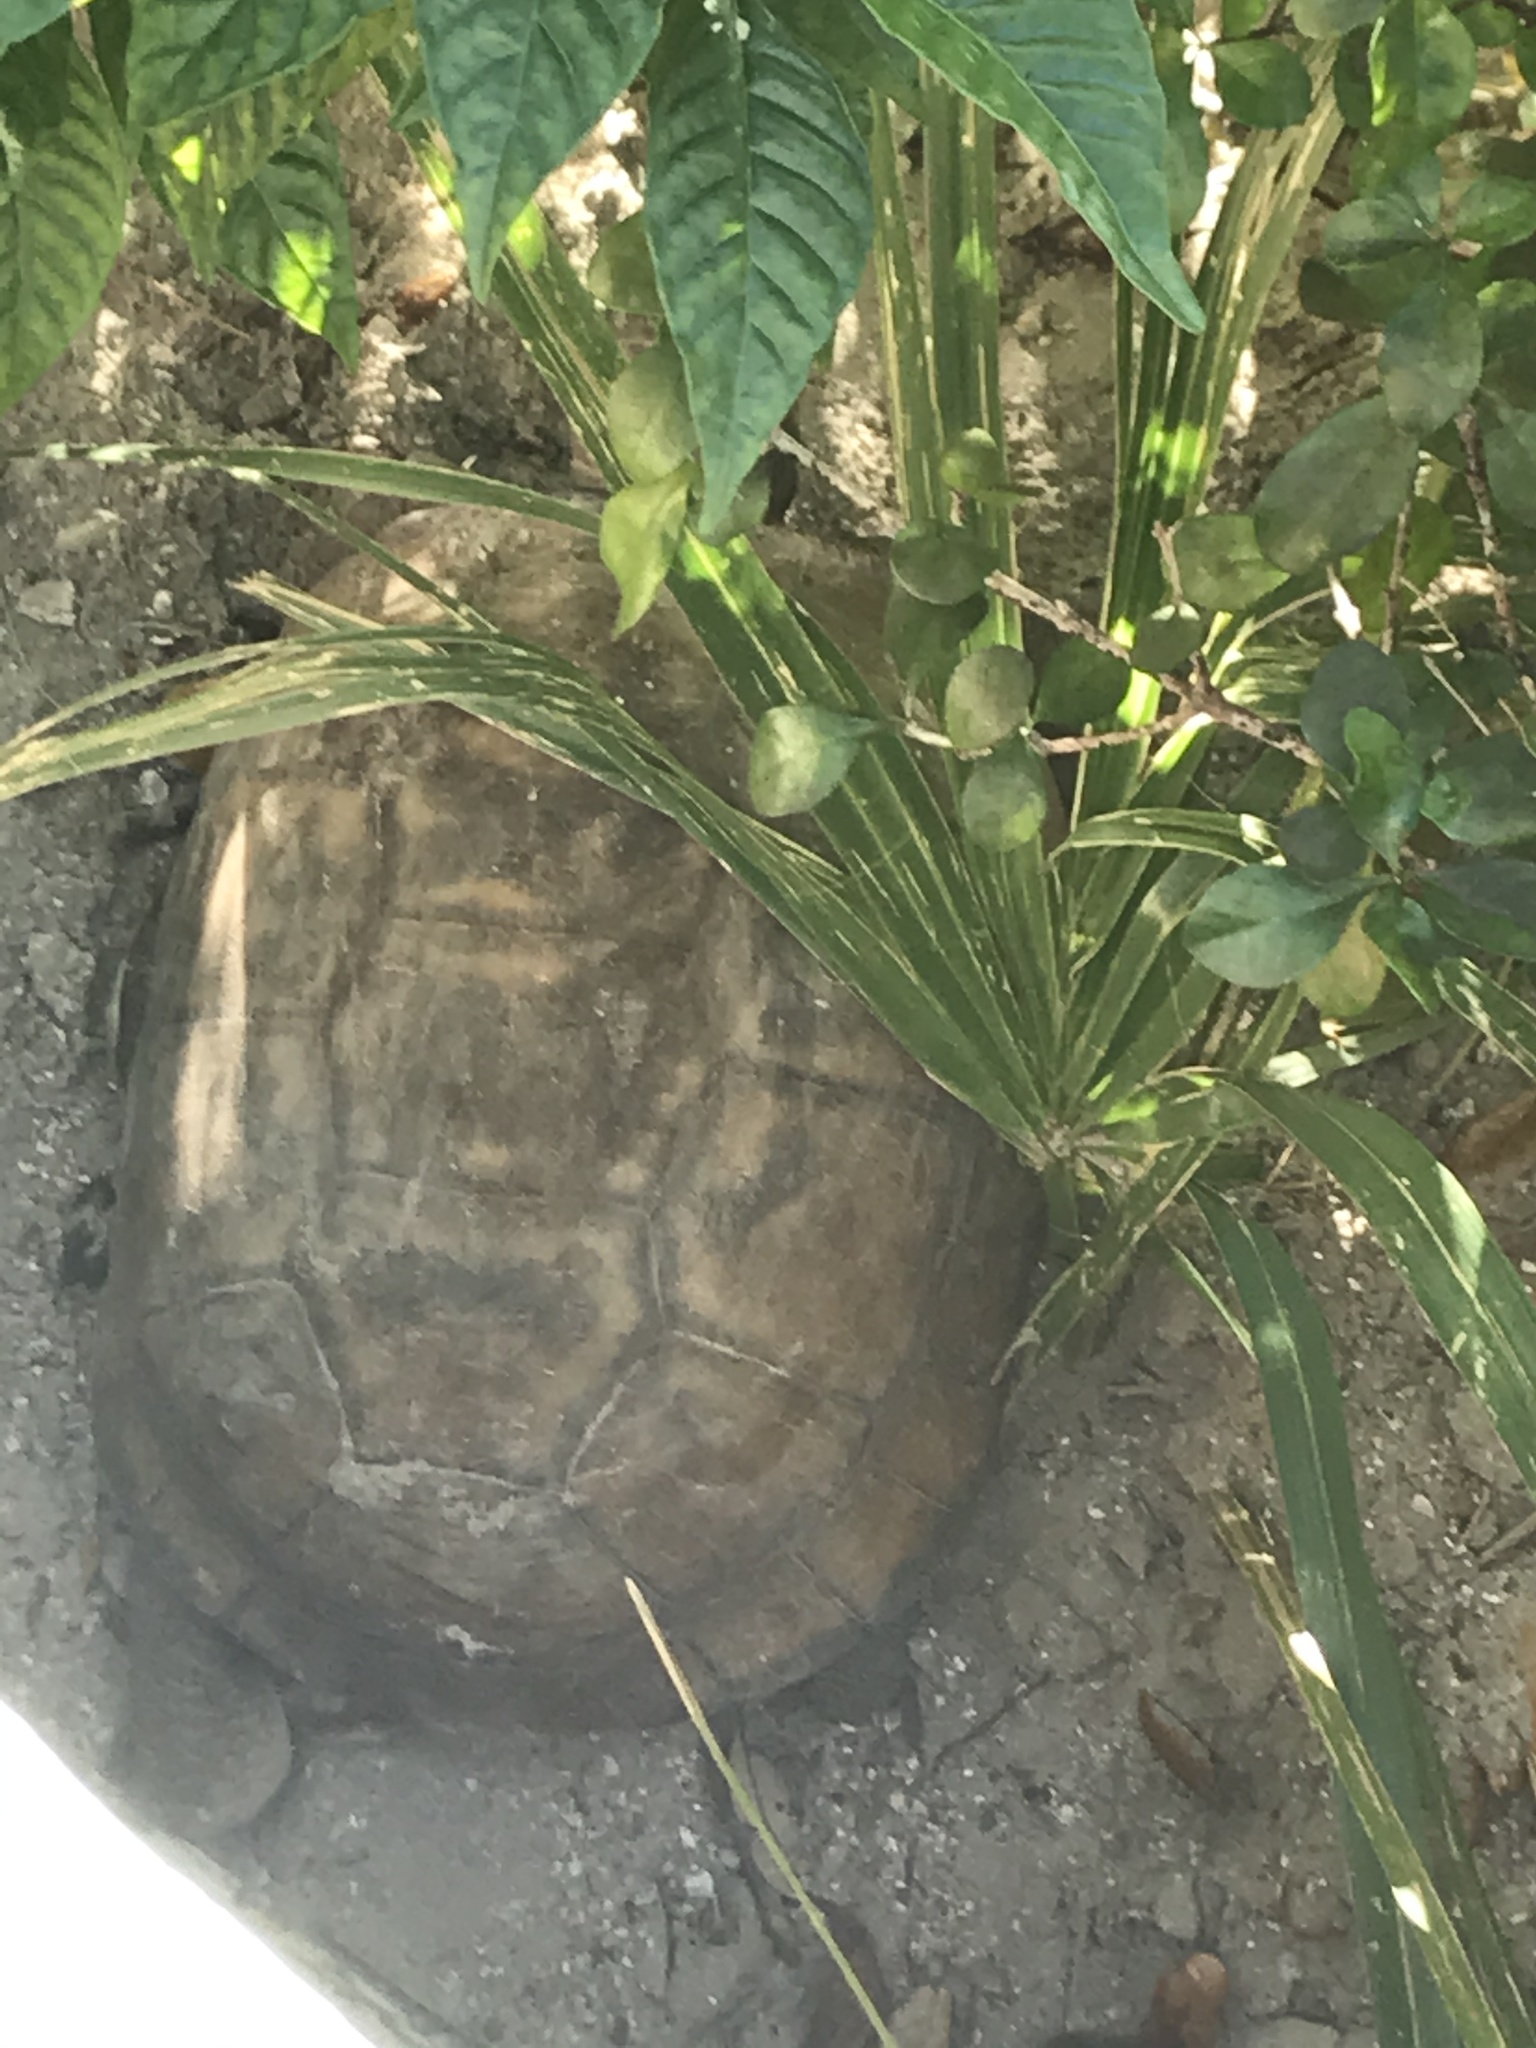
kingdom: Animalia
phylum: Chordata
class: Testudines
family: Testudinidae
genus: Gopherus
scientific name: Gopherus polyphemus
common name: Florida gopher tortoise
